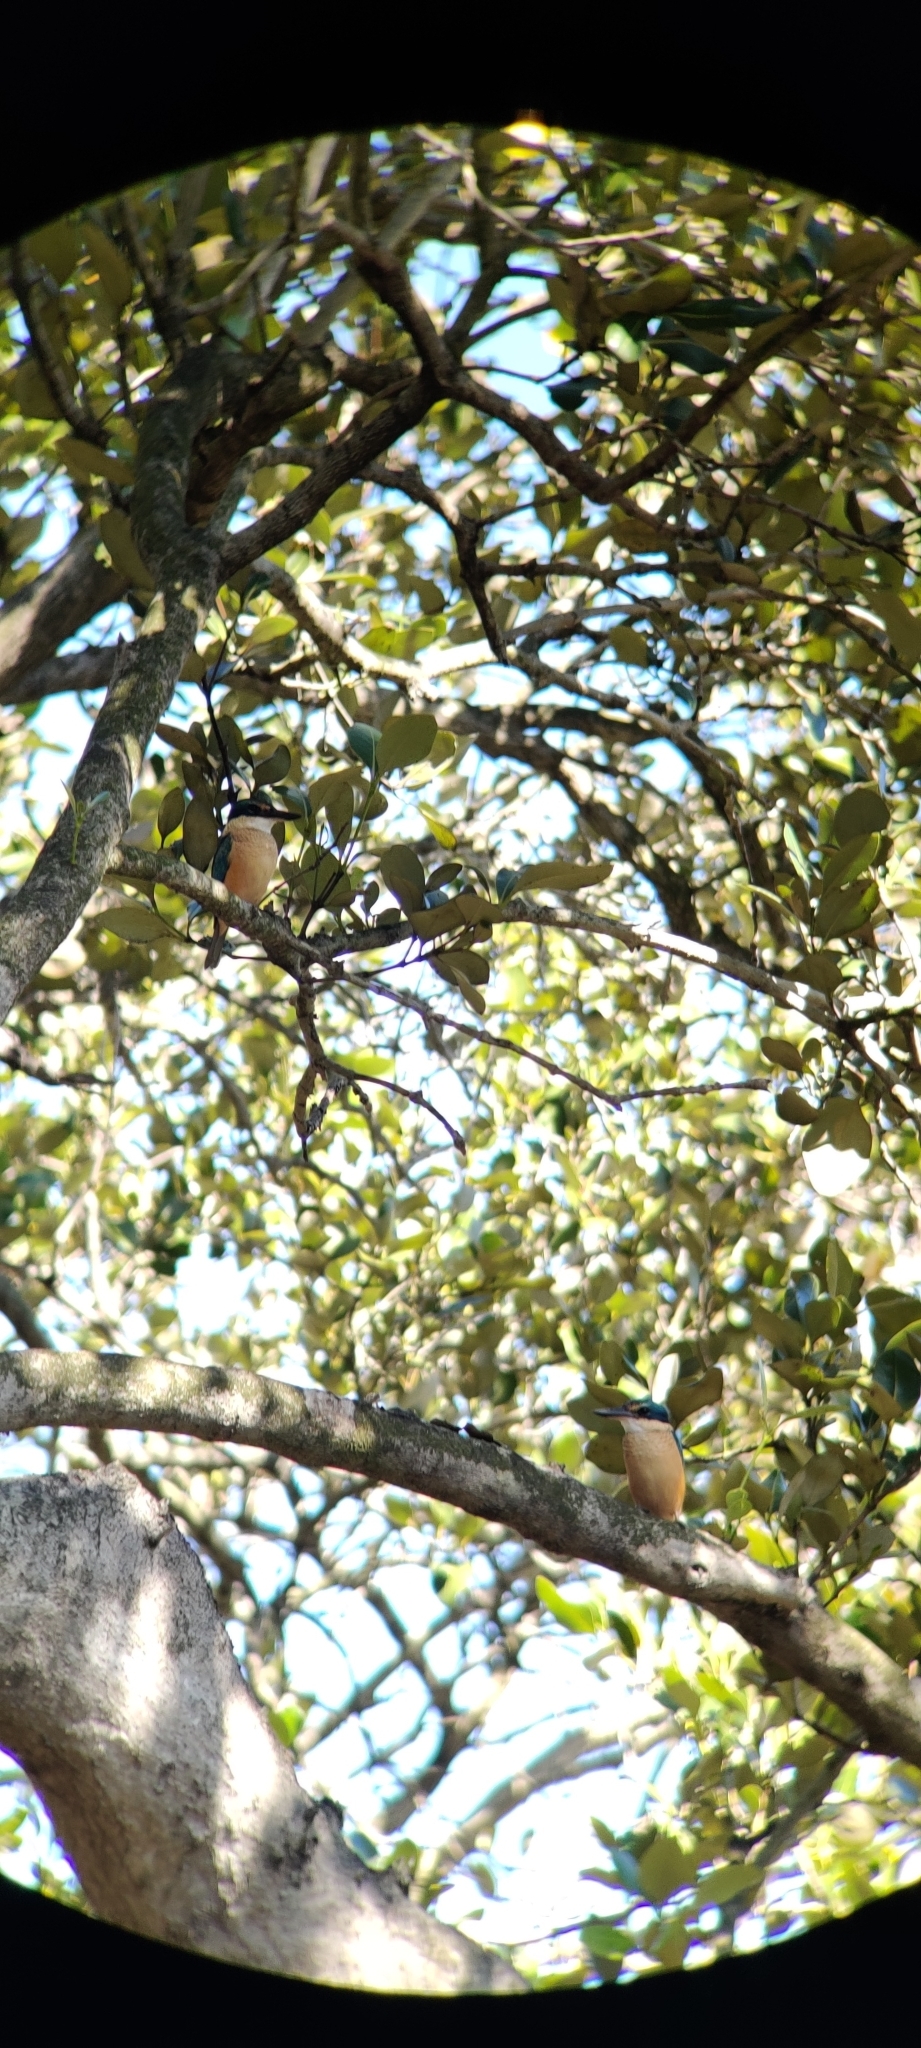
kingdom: Animalia
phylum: Chordata
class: Aves
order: Coraciiformes
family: Alcedinidae
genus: Todiramphus
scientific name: Todiramphus sanctus
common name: Sacred kingfisher
